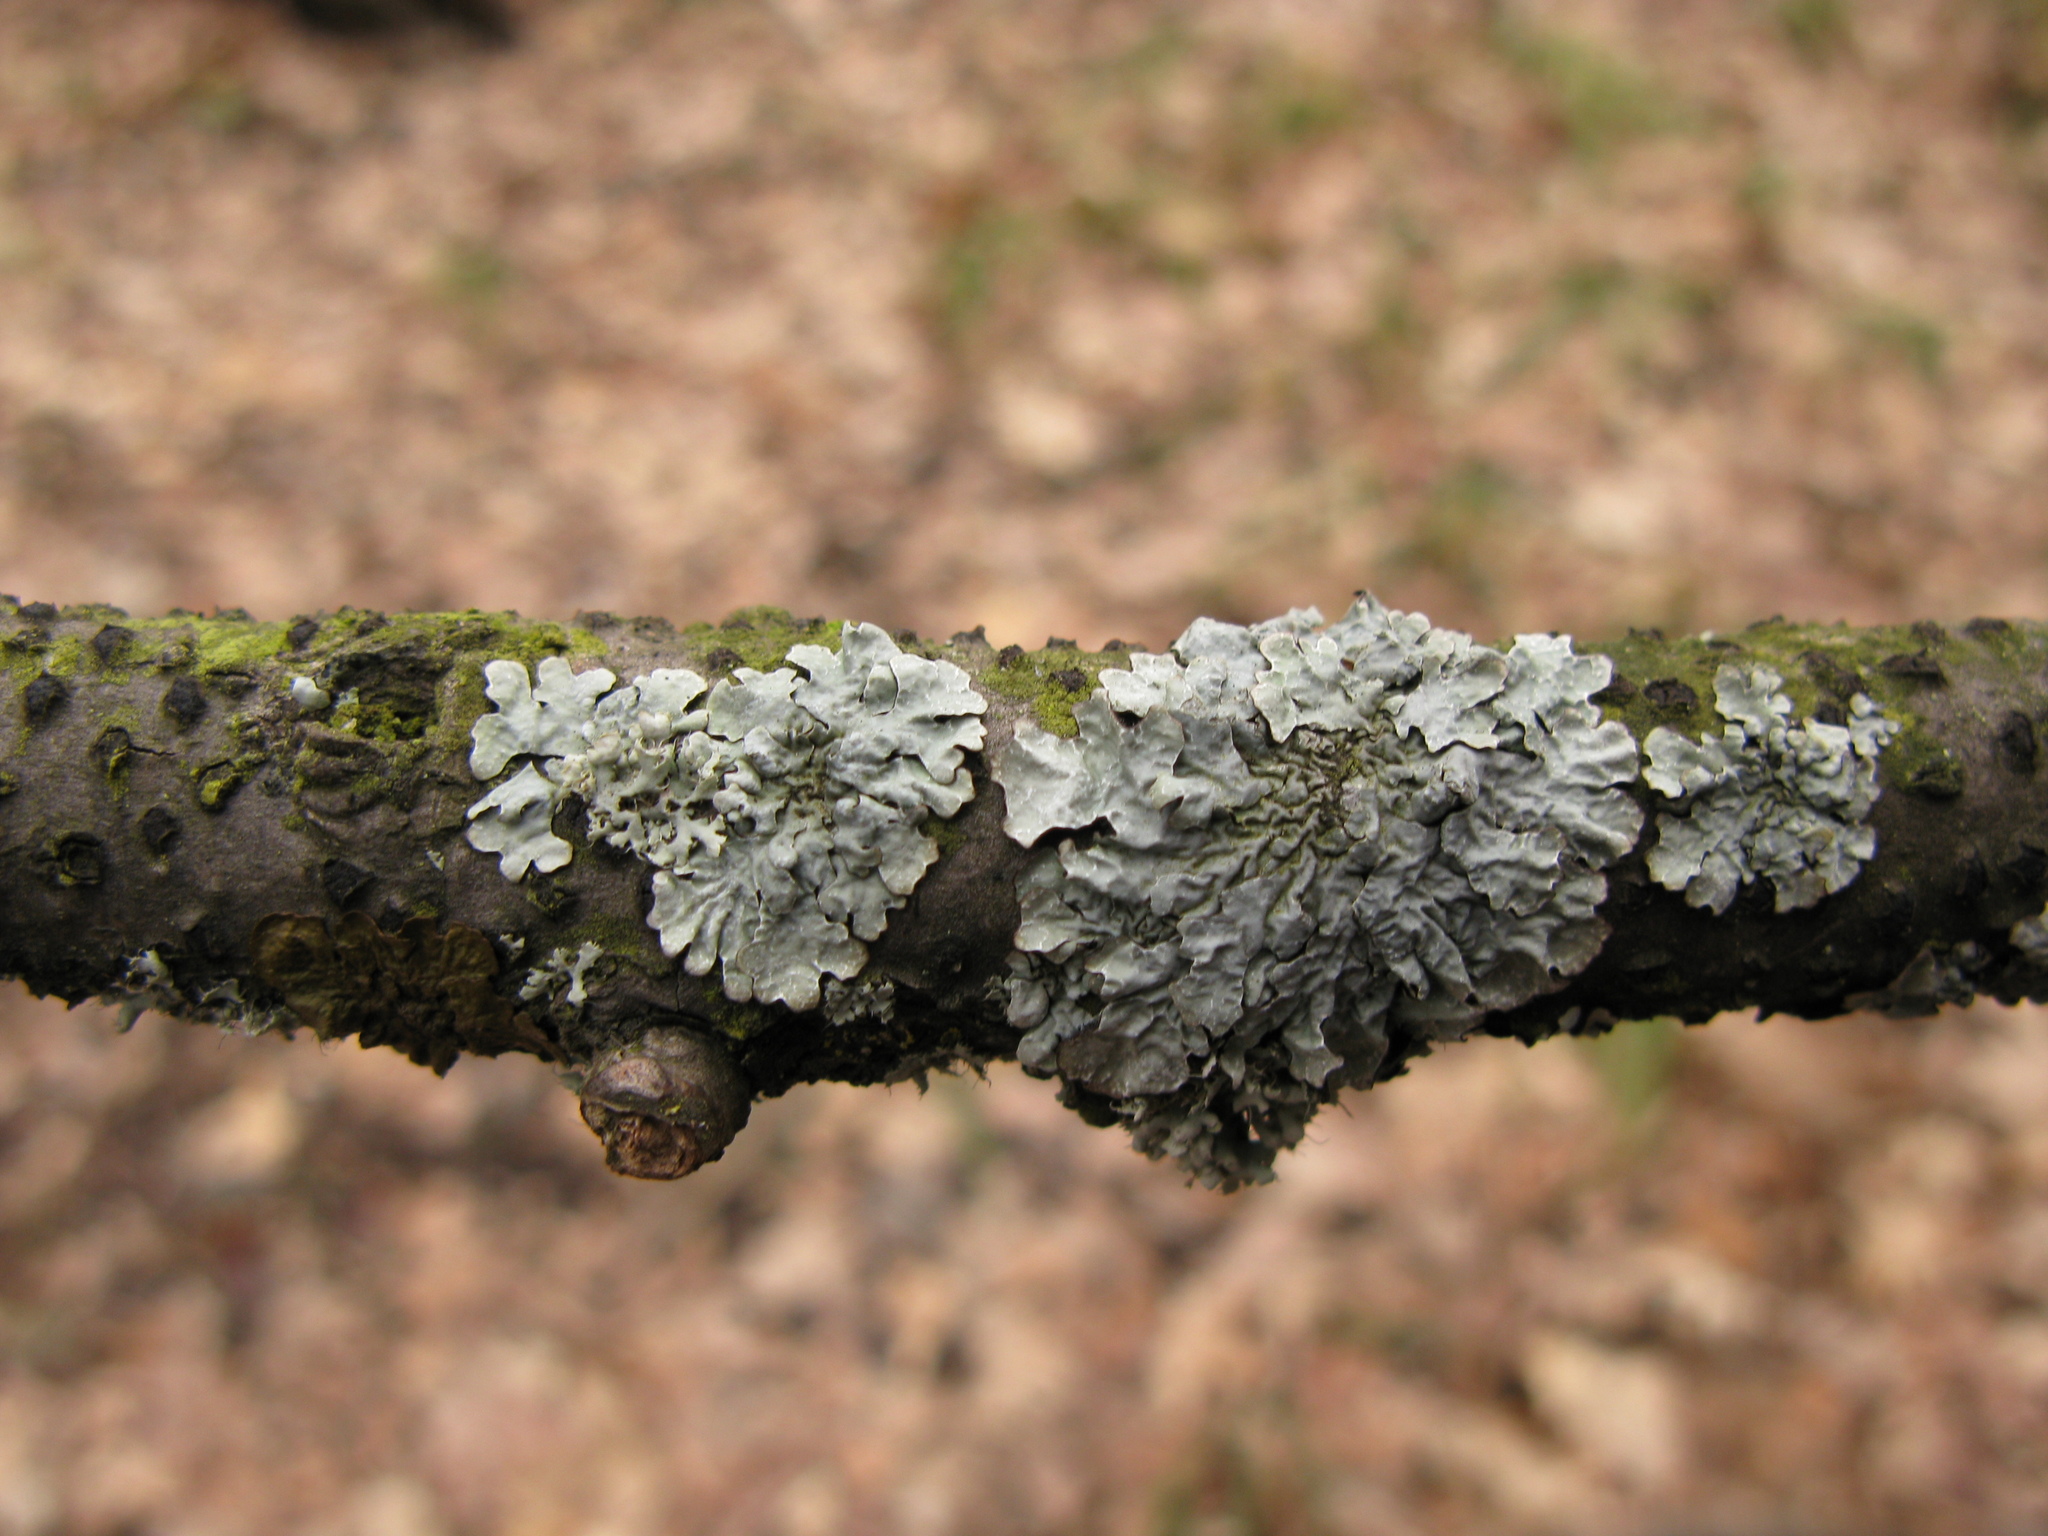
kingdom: Fungi
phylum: Ascomycota
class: Lecanoromycetes
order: Lecanorales
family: Parmeliaceae
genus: Parmelia
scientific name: Parmelia sulcata
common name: Netted shield lichen
